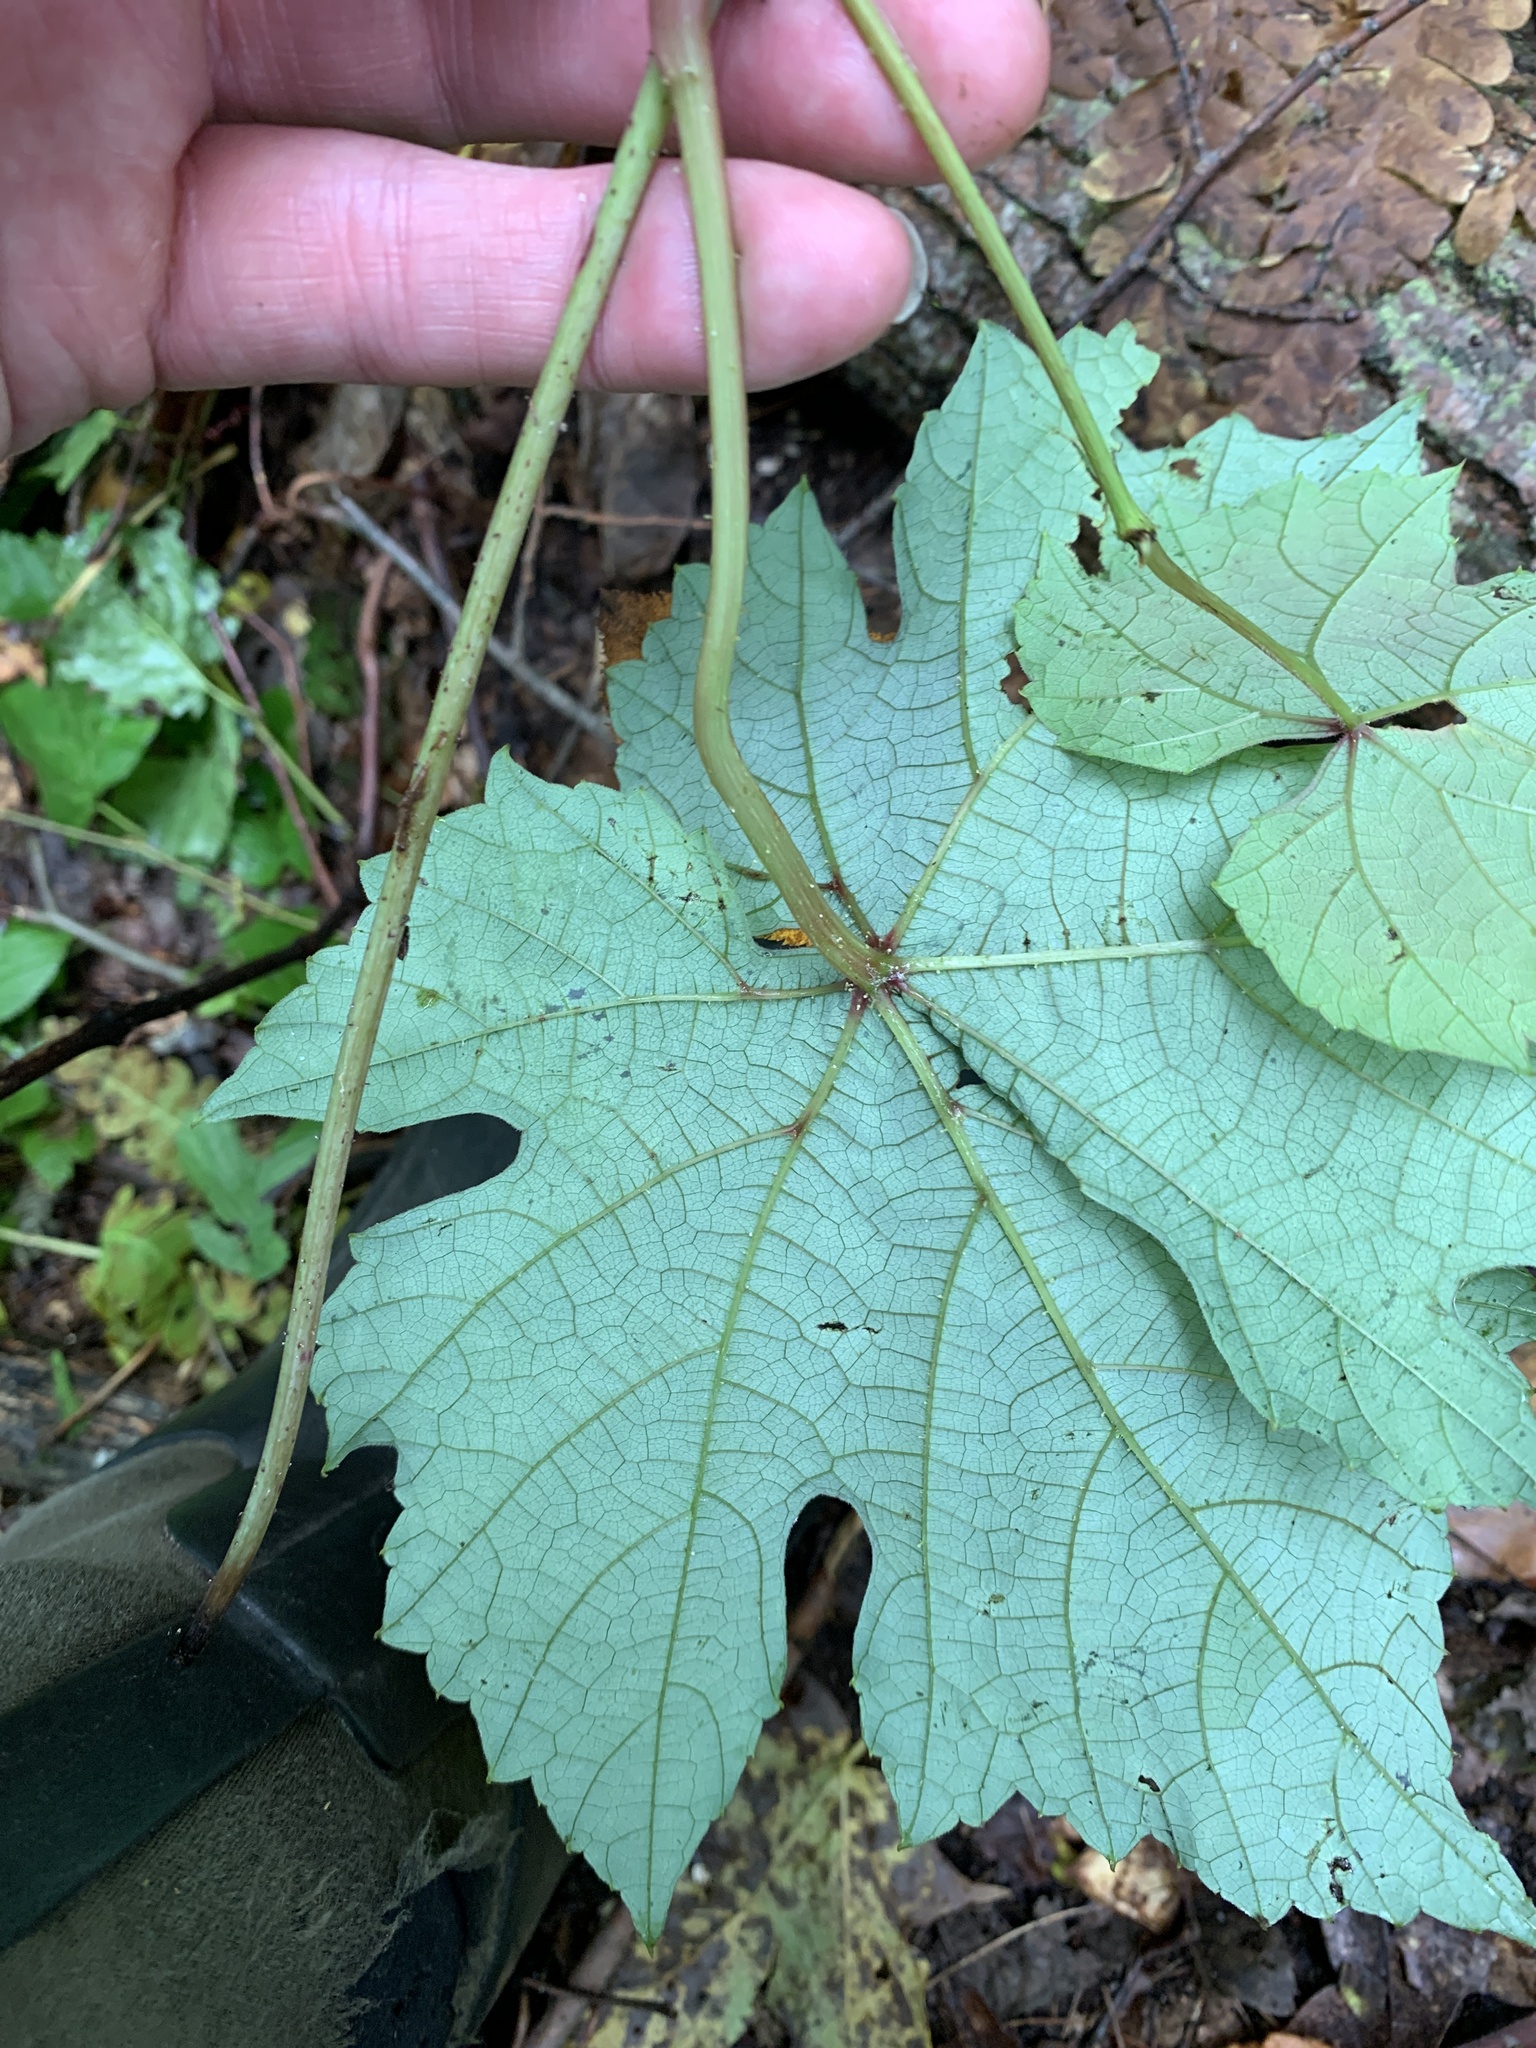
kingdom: Plantae
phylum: Tracheophyta
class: Magnoliopsida
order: Vitales
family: Vitaceae
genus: Vitis
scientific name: Vitis aestivalis
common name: Pigeon grape
